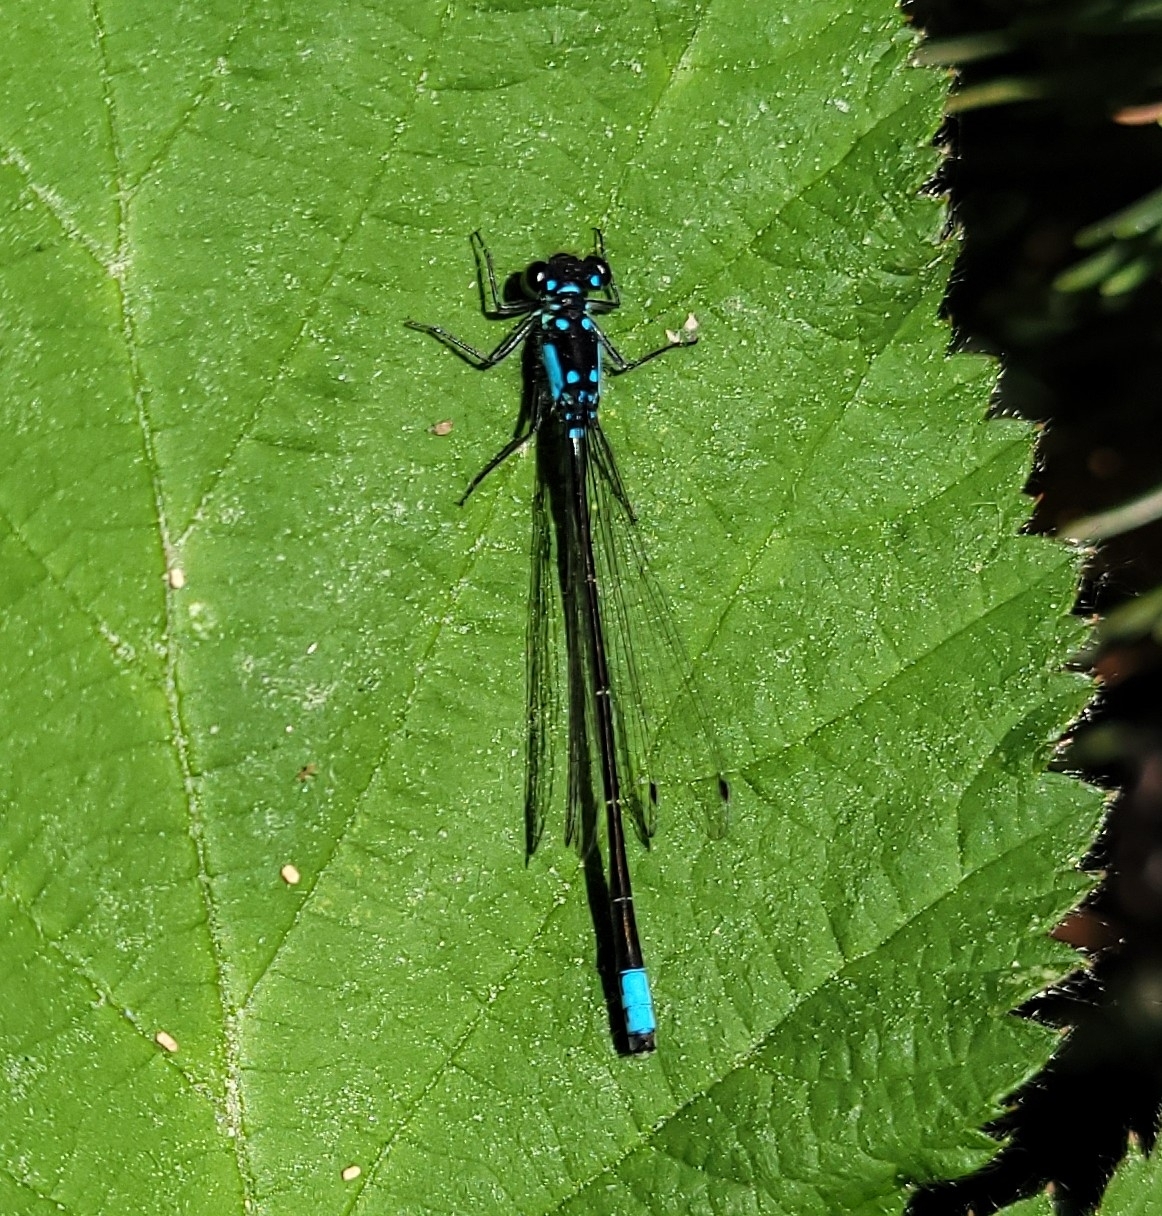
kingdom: Animalia
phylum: Arthropoda
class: Insecta
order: Odonata
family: Coenagrionidae
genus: Ischnura
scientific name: Ischnura cervula
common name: Pacific forktail
